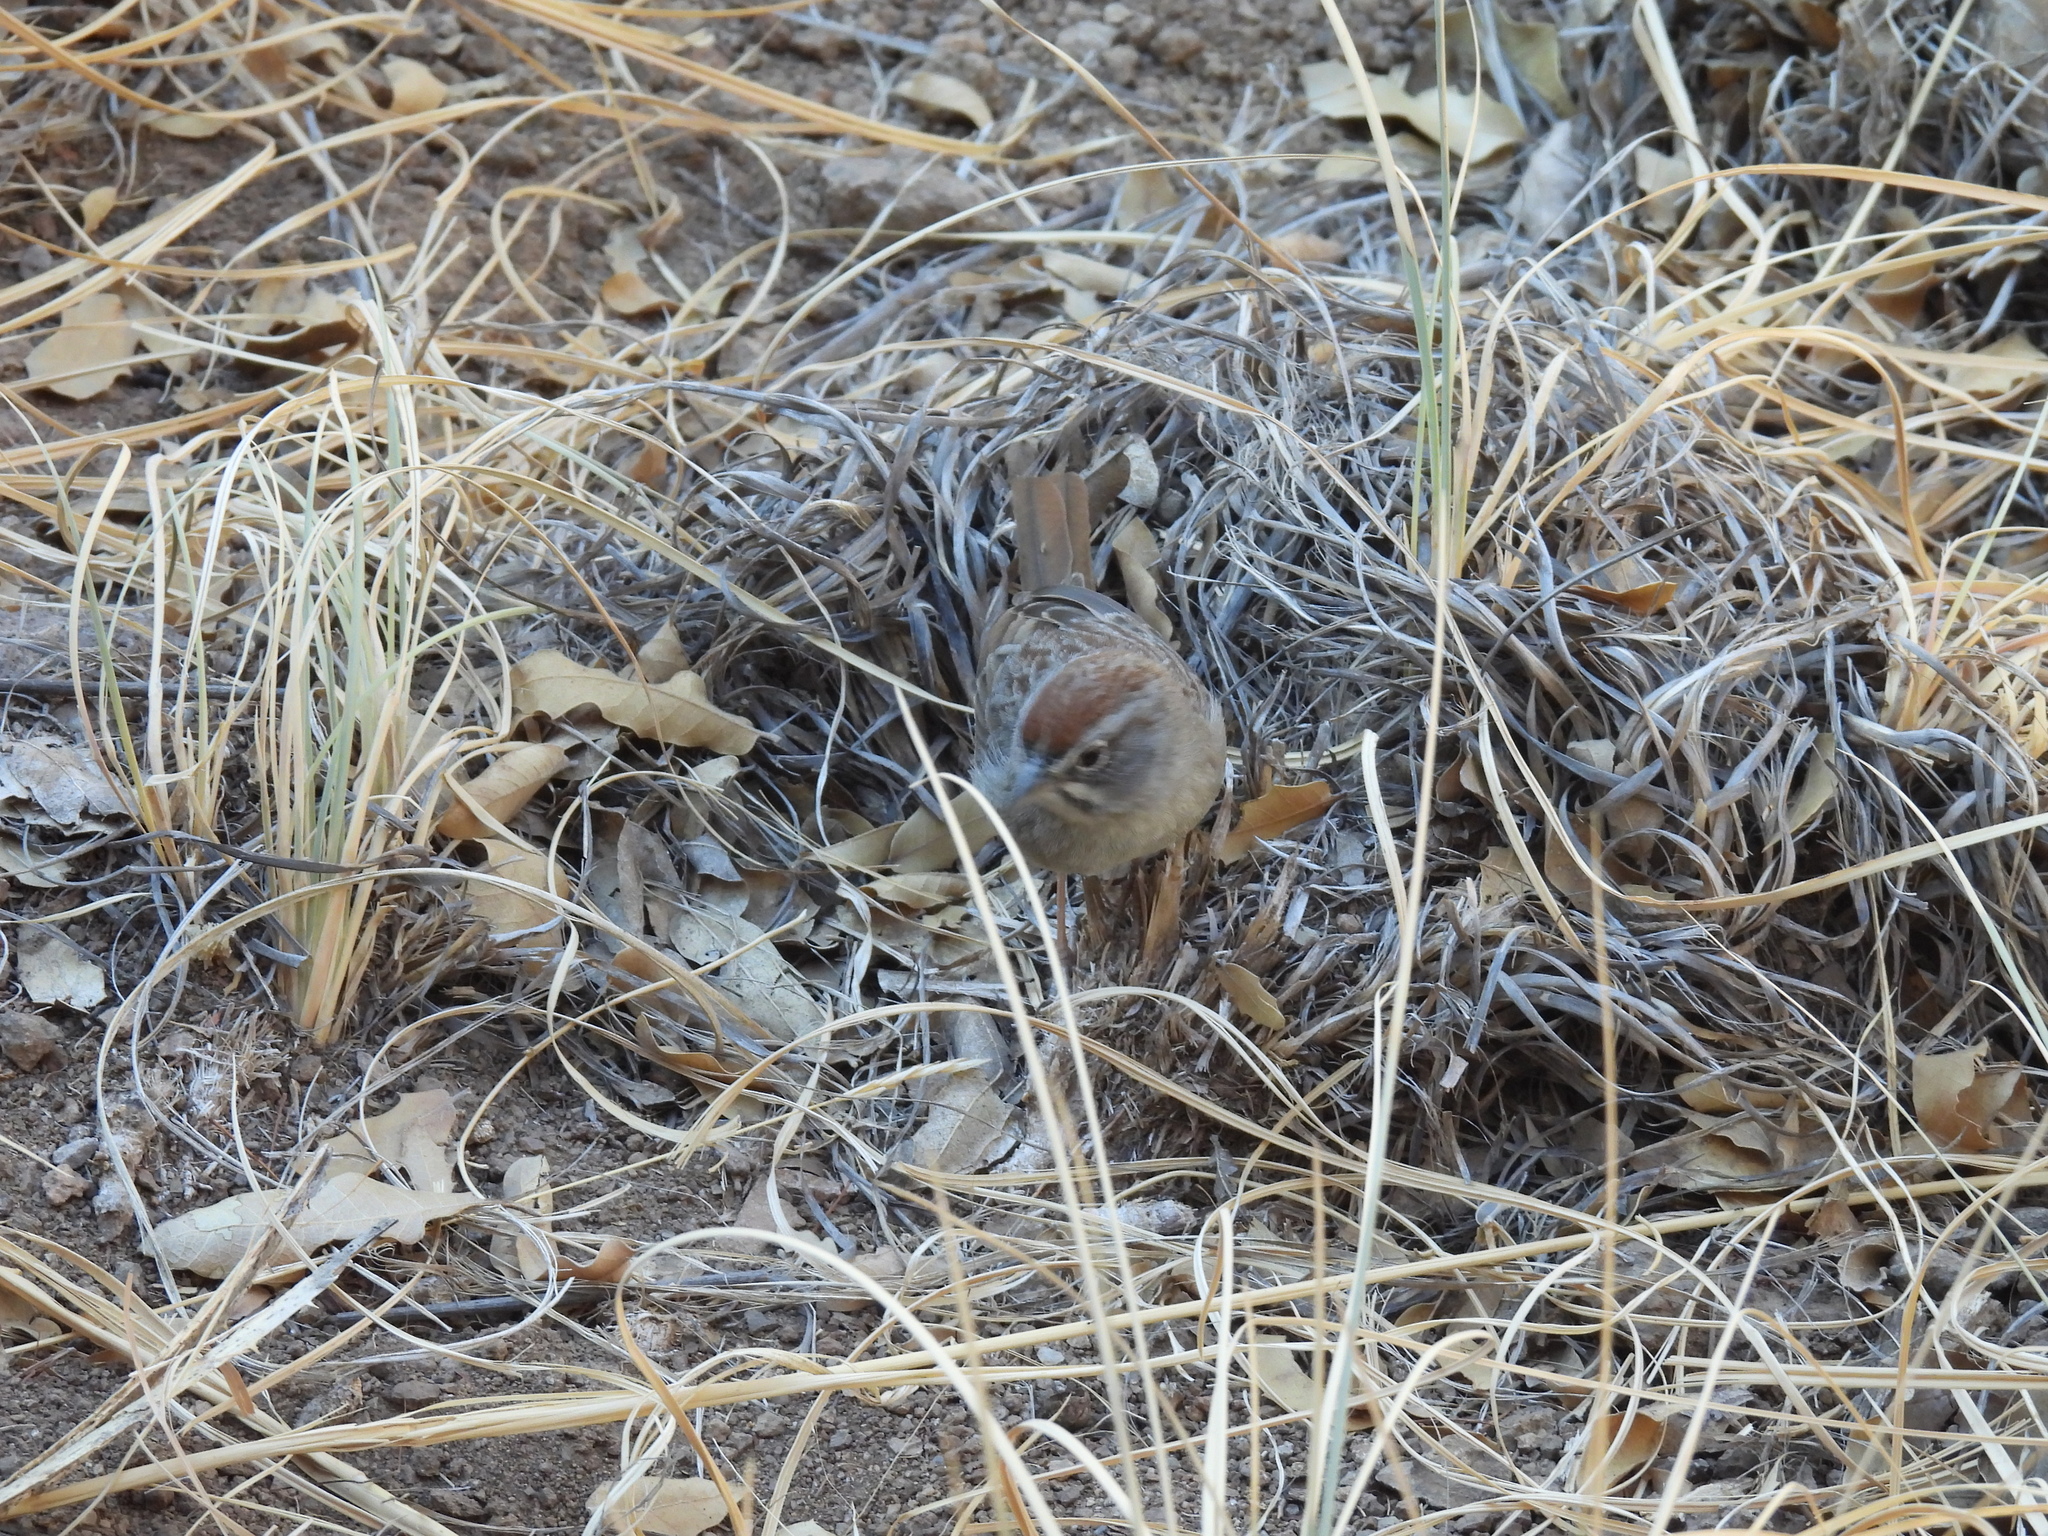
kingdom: Animalia
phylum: Chordata
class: Aves
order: Passeriformes
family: Passerellidae
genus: Aimophila
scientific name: Aimophila ruficeps
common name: Rufous-crowned sparrow
